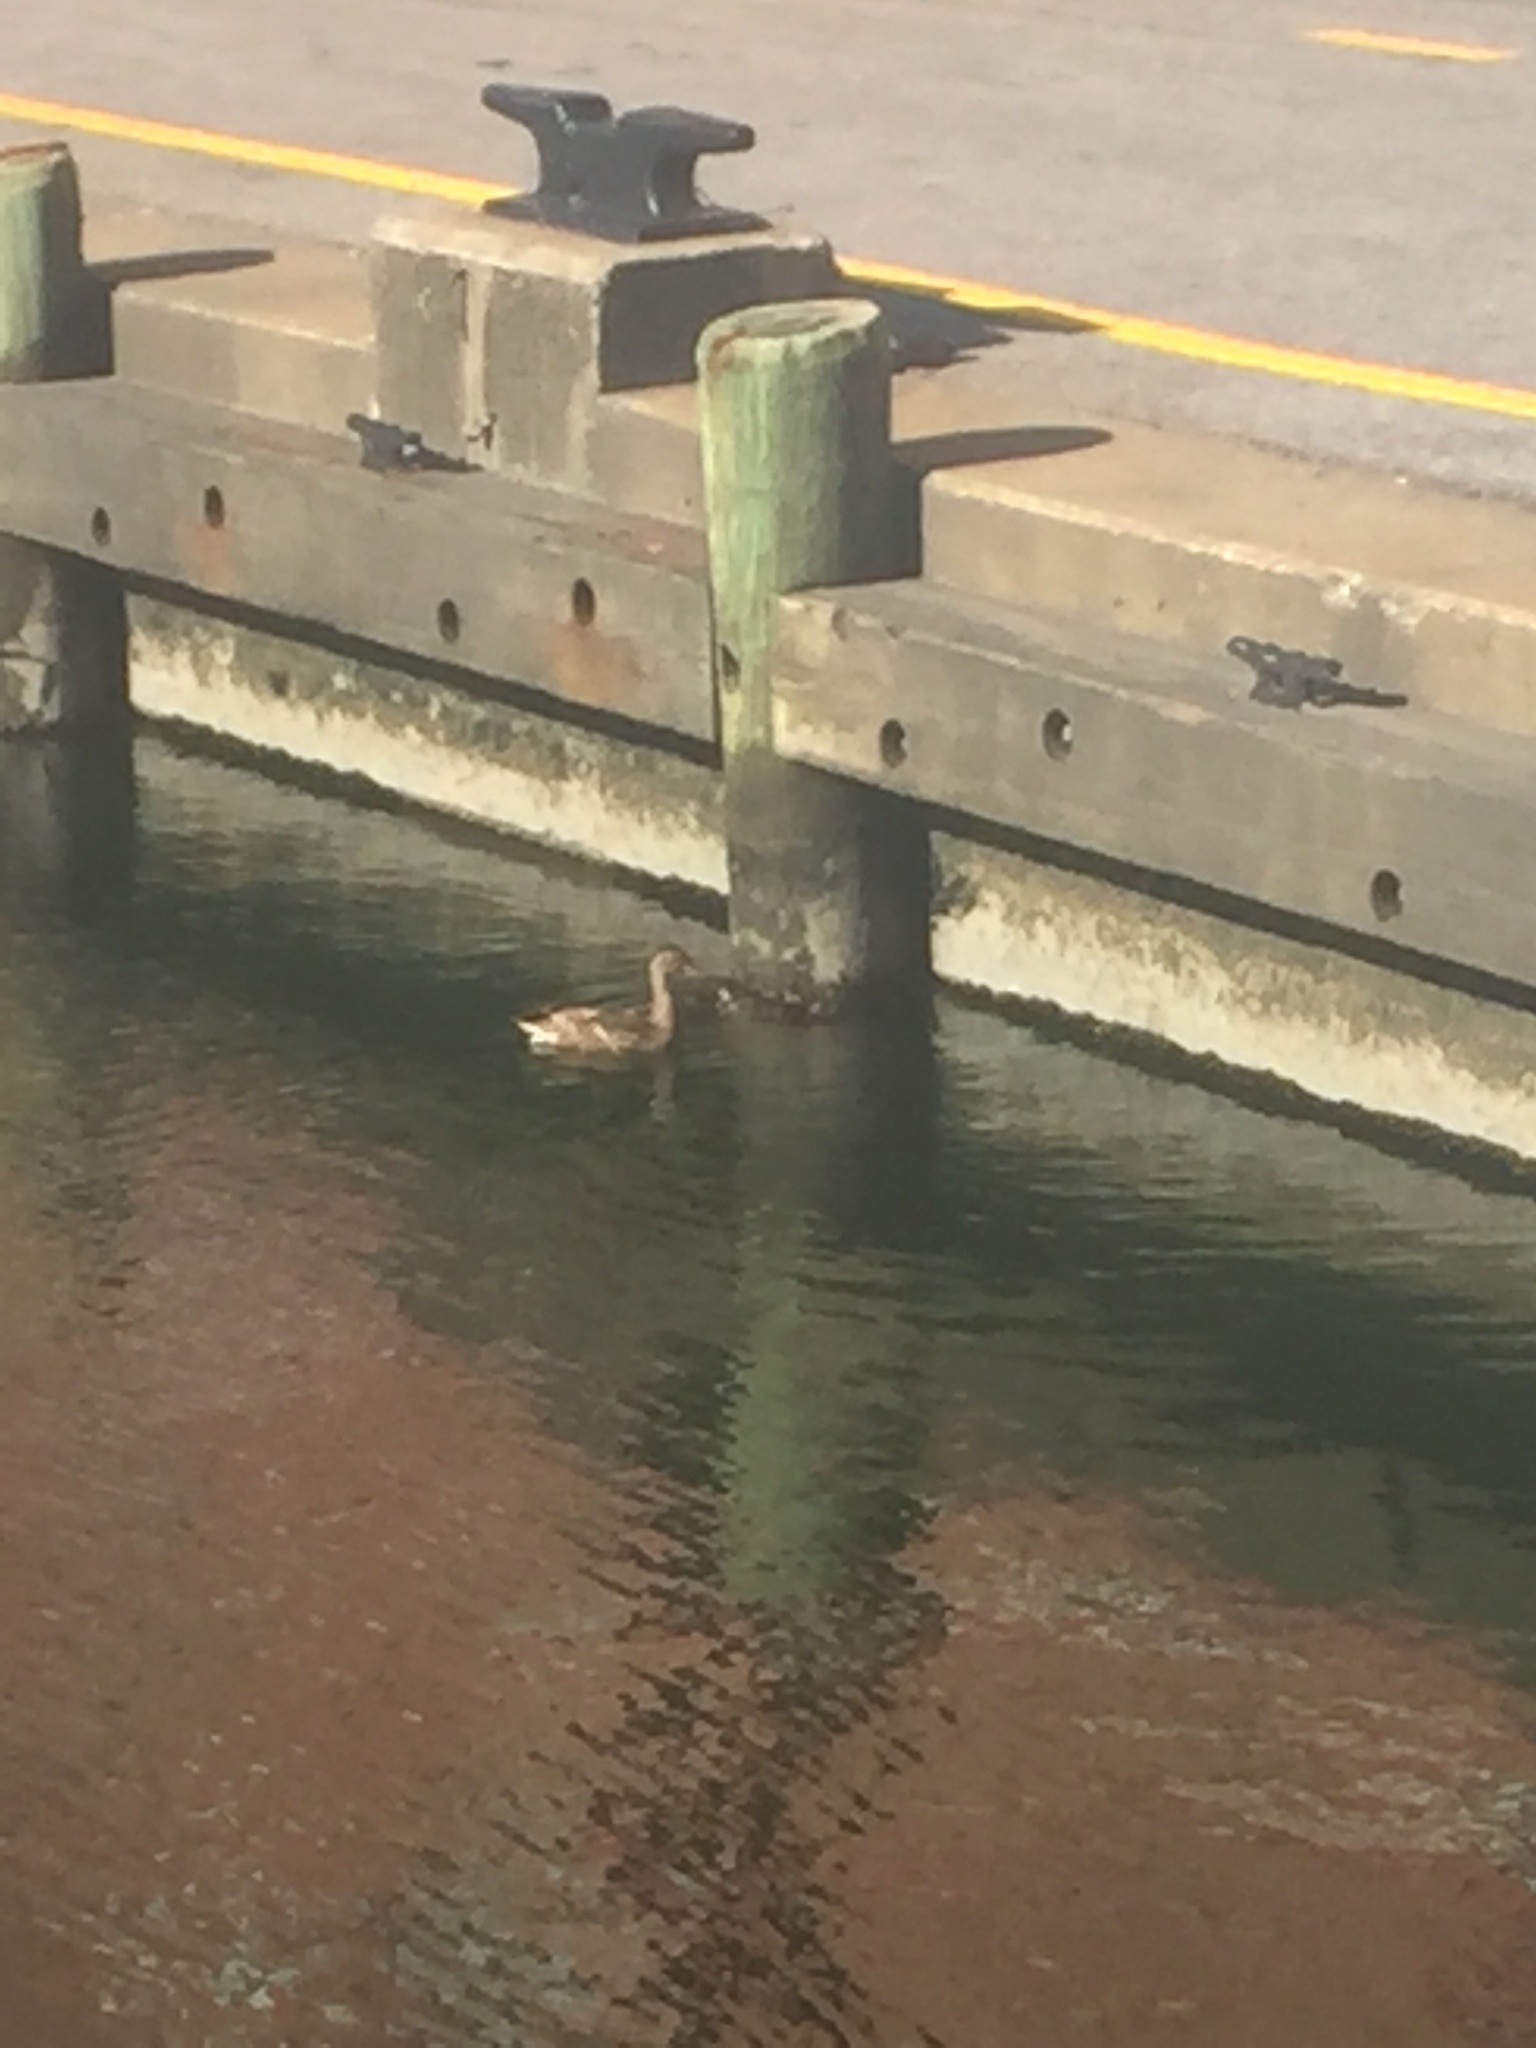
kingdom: Animalia
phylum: Chordata
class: Aves
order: Anseriformes
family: Anatidae
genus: Anas
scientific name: Anas platyrhynchos
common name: Mallard
